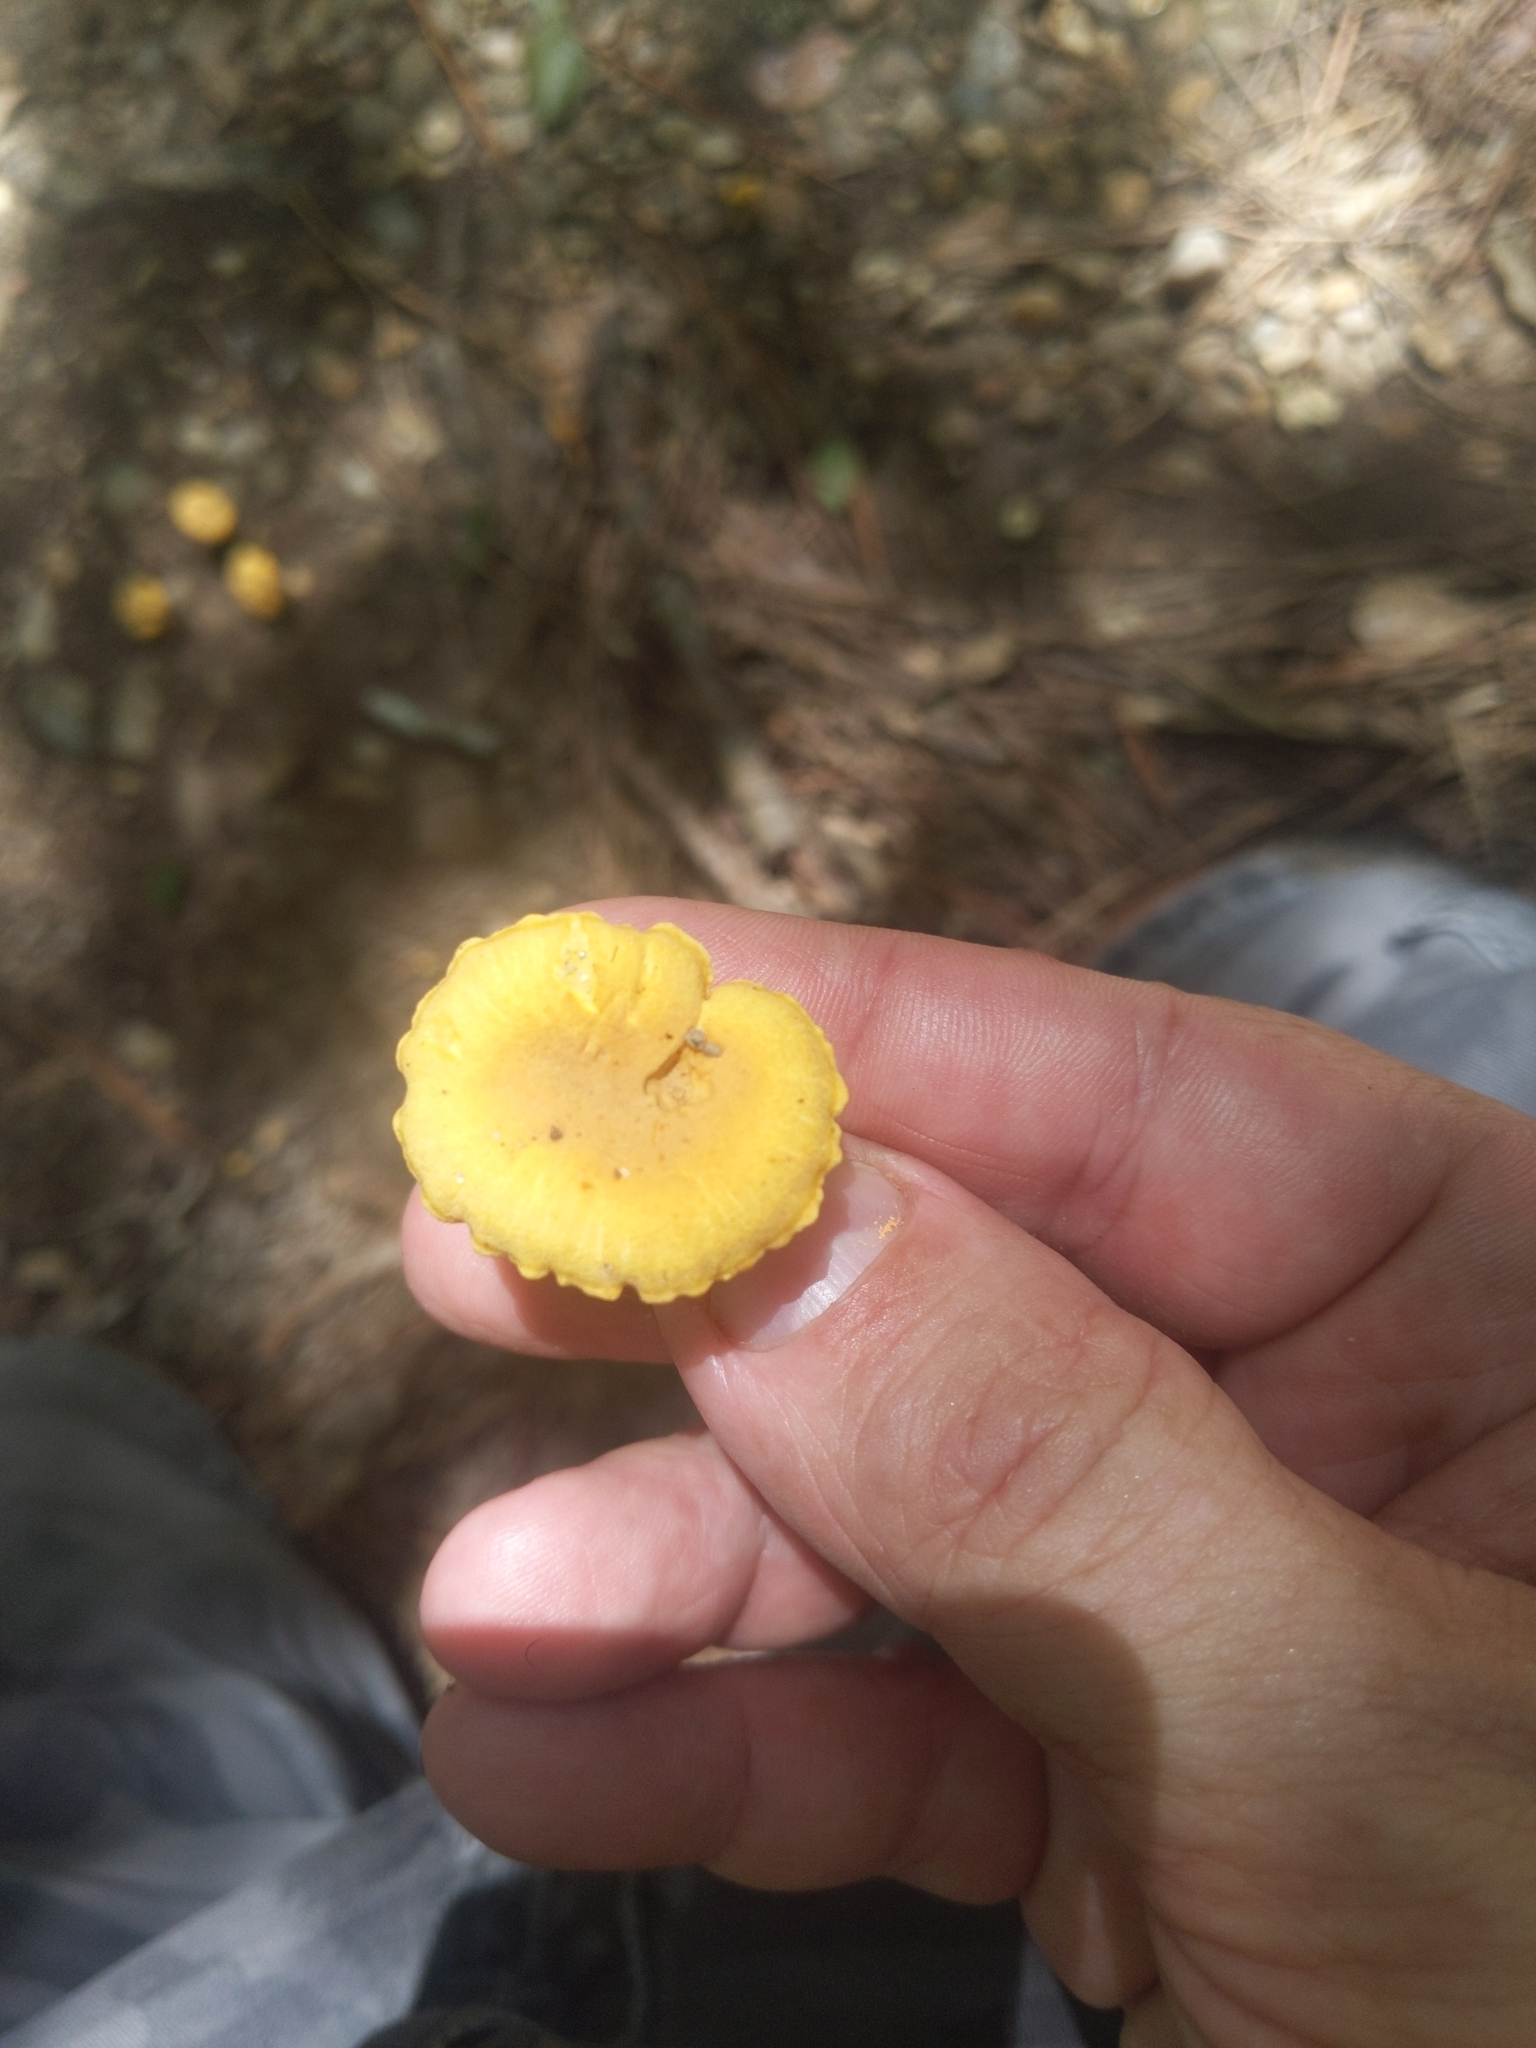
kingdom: Fungi
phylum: Basidiomycota
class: Agaricomycetes
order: Cantharellales
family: Hydnaceae
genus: Cantharellus
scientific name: Cantharellus minor
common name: Small chanterelle
